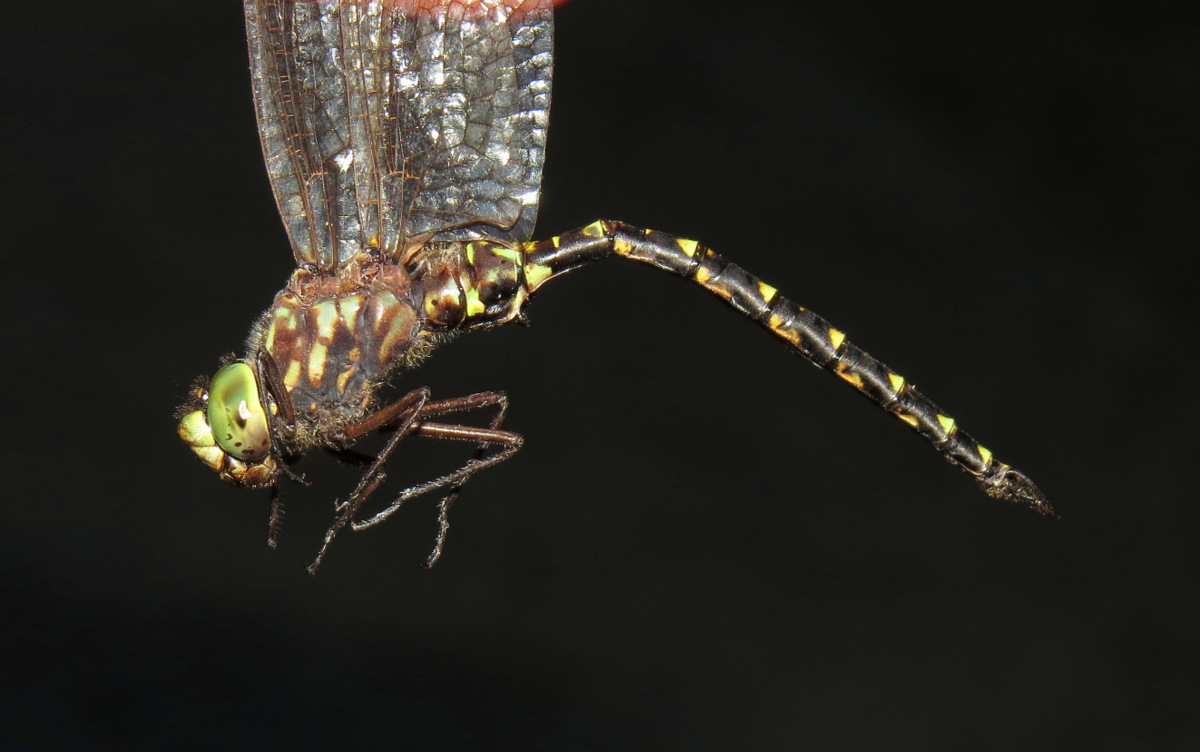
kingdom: Animalia
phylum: Arthropoda
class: Insecta
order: Odonata
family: Aeshnidae
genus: Gomphaeschna
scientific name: Gomphaeschna furcillata
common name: Harlequin darner
